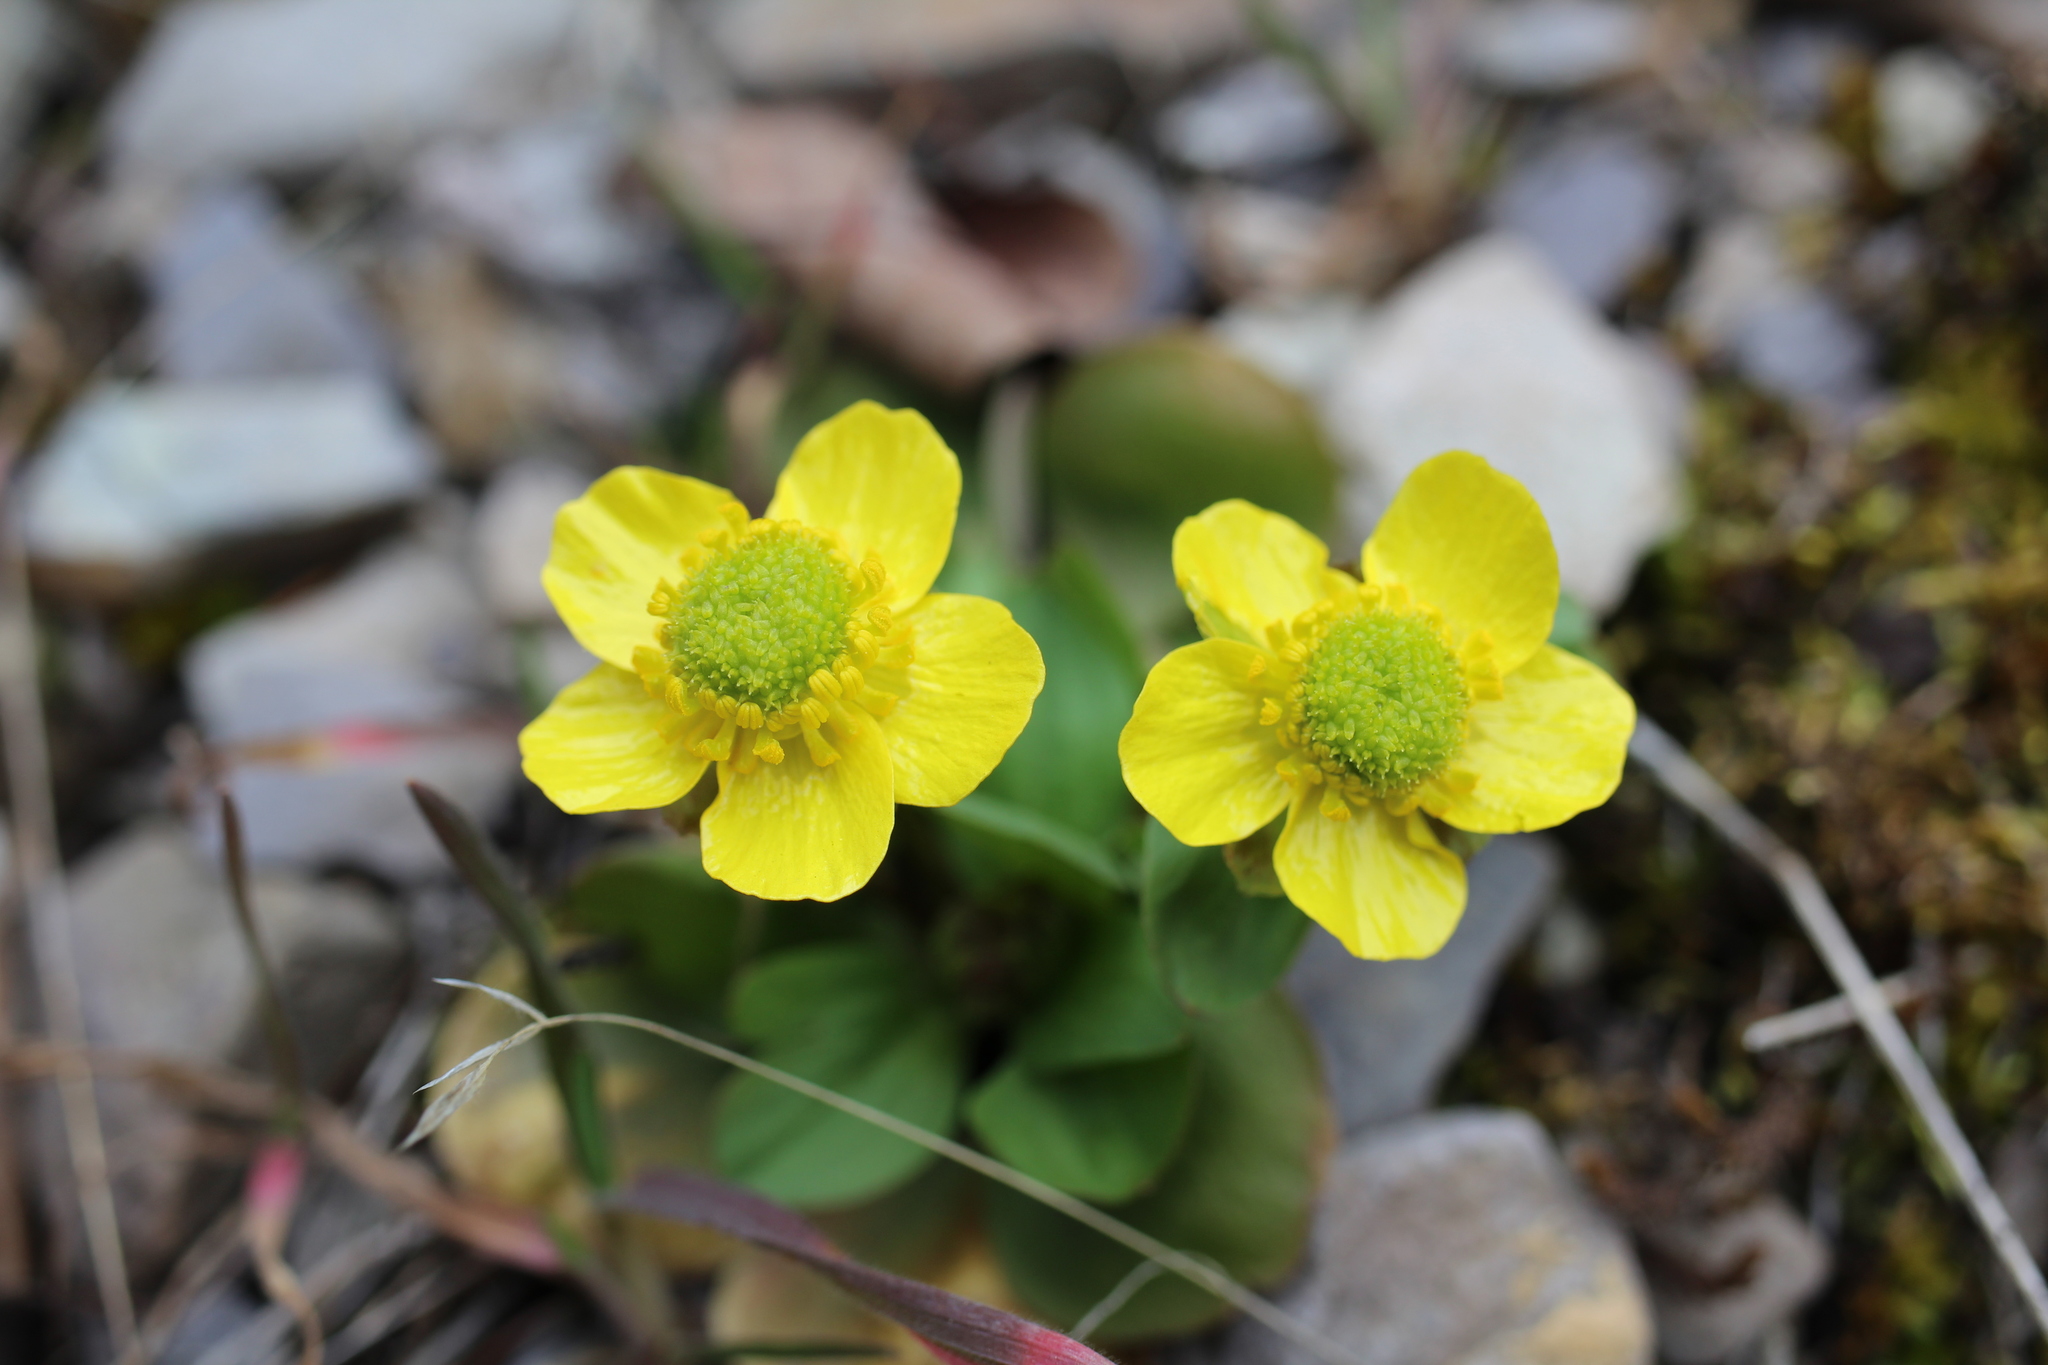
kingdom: Plantae
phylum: Tracheophyta
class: Magnoliopsida
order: Ranunculales
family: Ranunculaceae
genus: Ranunculus
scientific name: Ranunculus glaberrimus
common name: Sagebrush buttercup
